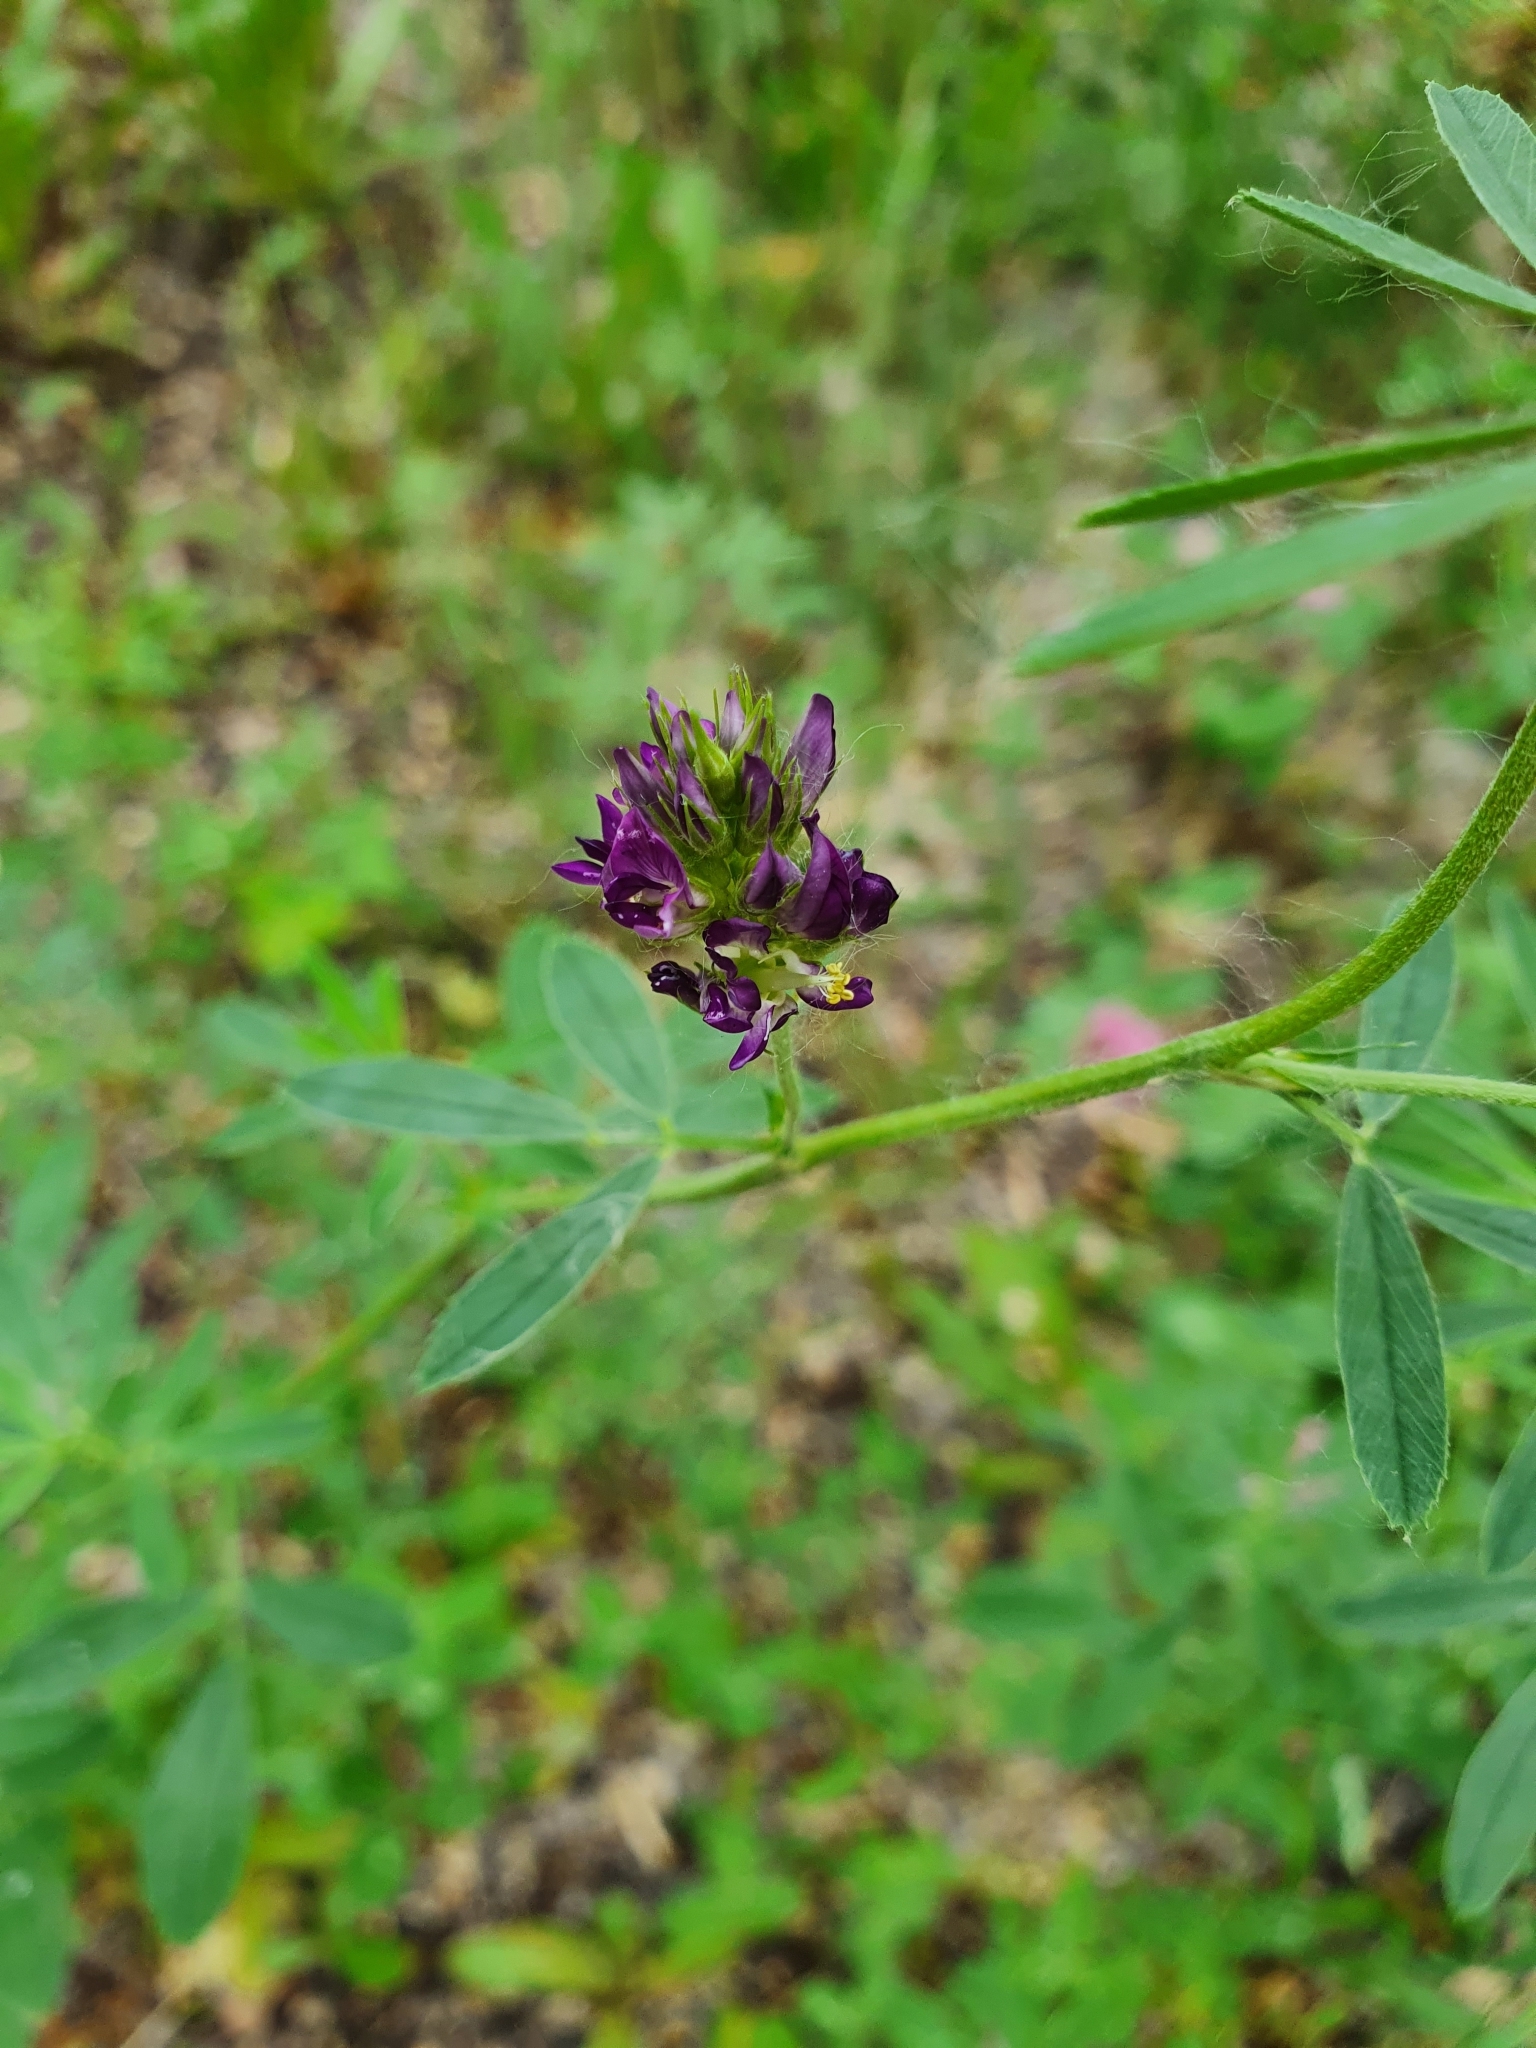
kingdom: Plantae
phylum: Tracheophyta
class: Magnoliopsida
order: Fabales
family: Fabaceae
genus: Medicago
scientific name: Medicago sativa
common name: Alfalfa
